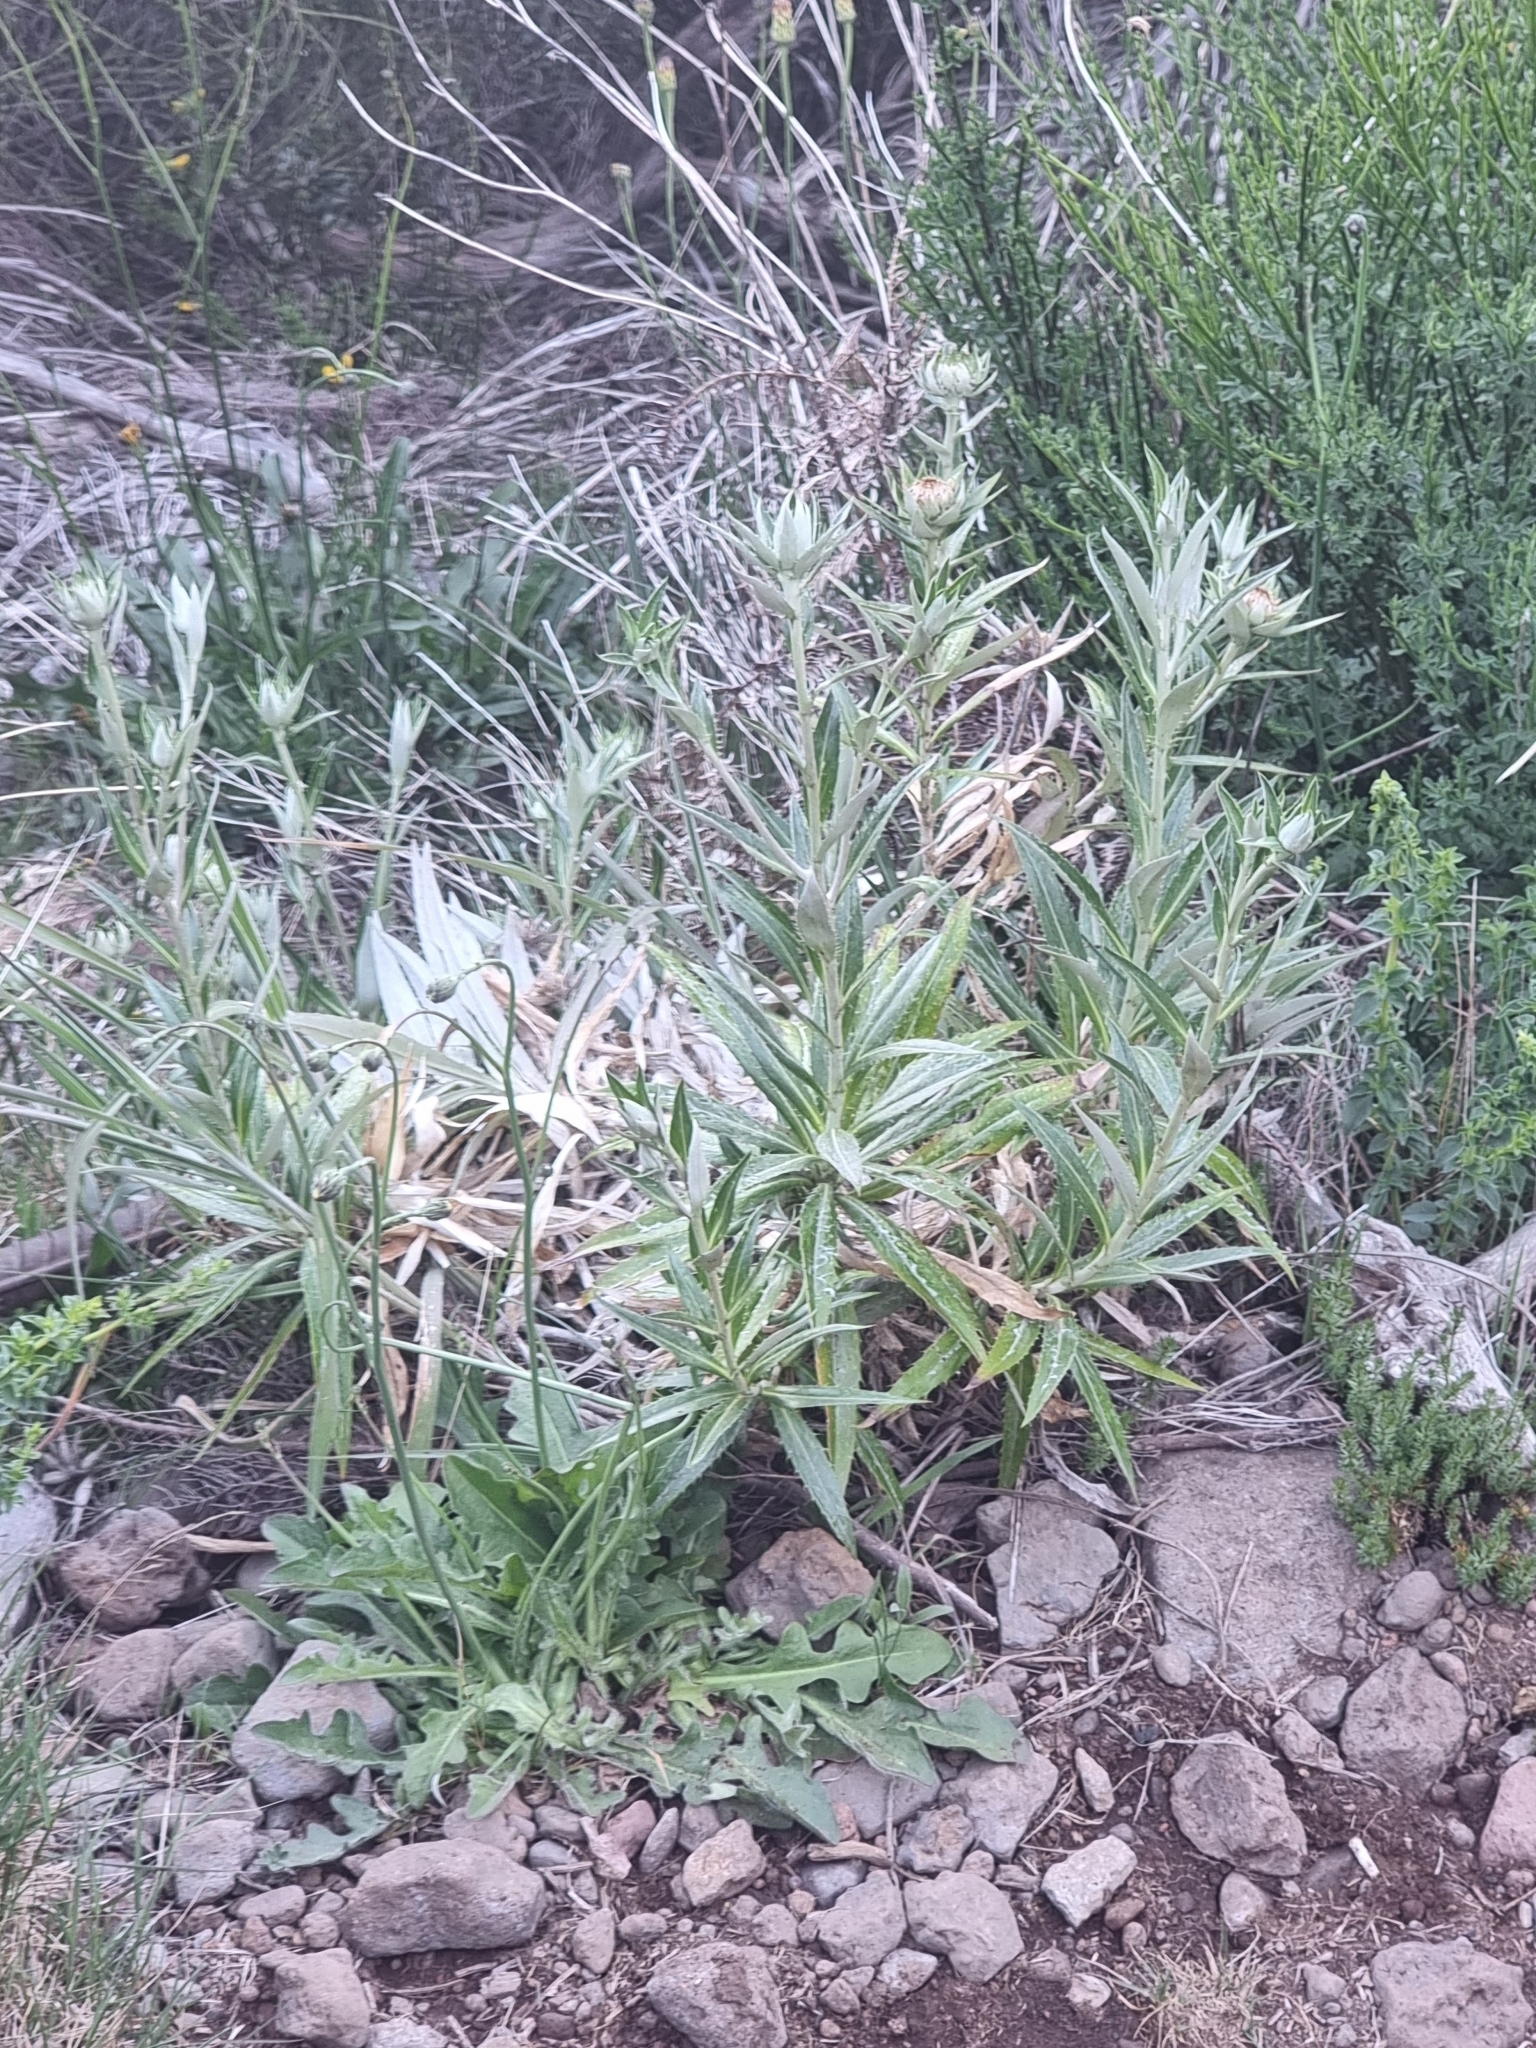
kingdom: Plantae
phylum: Tracheophyta
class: Magnoliopsida
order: Asterales
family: Asteraceae
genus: Carlina
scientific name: Carlina salicifolia
